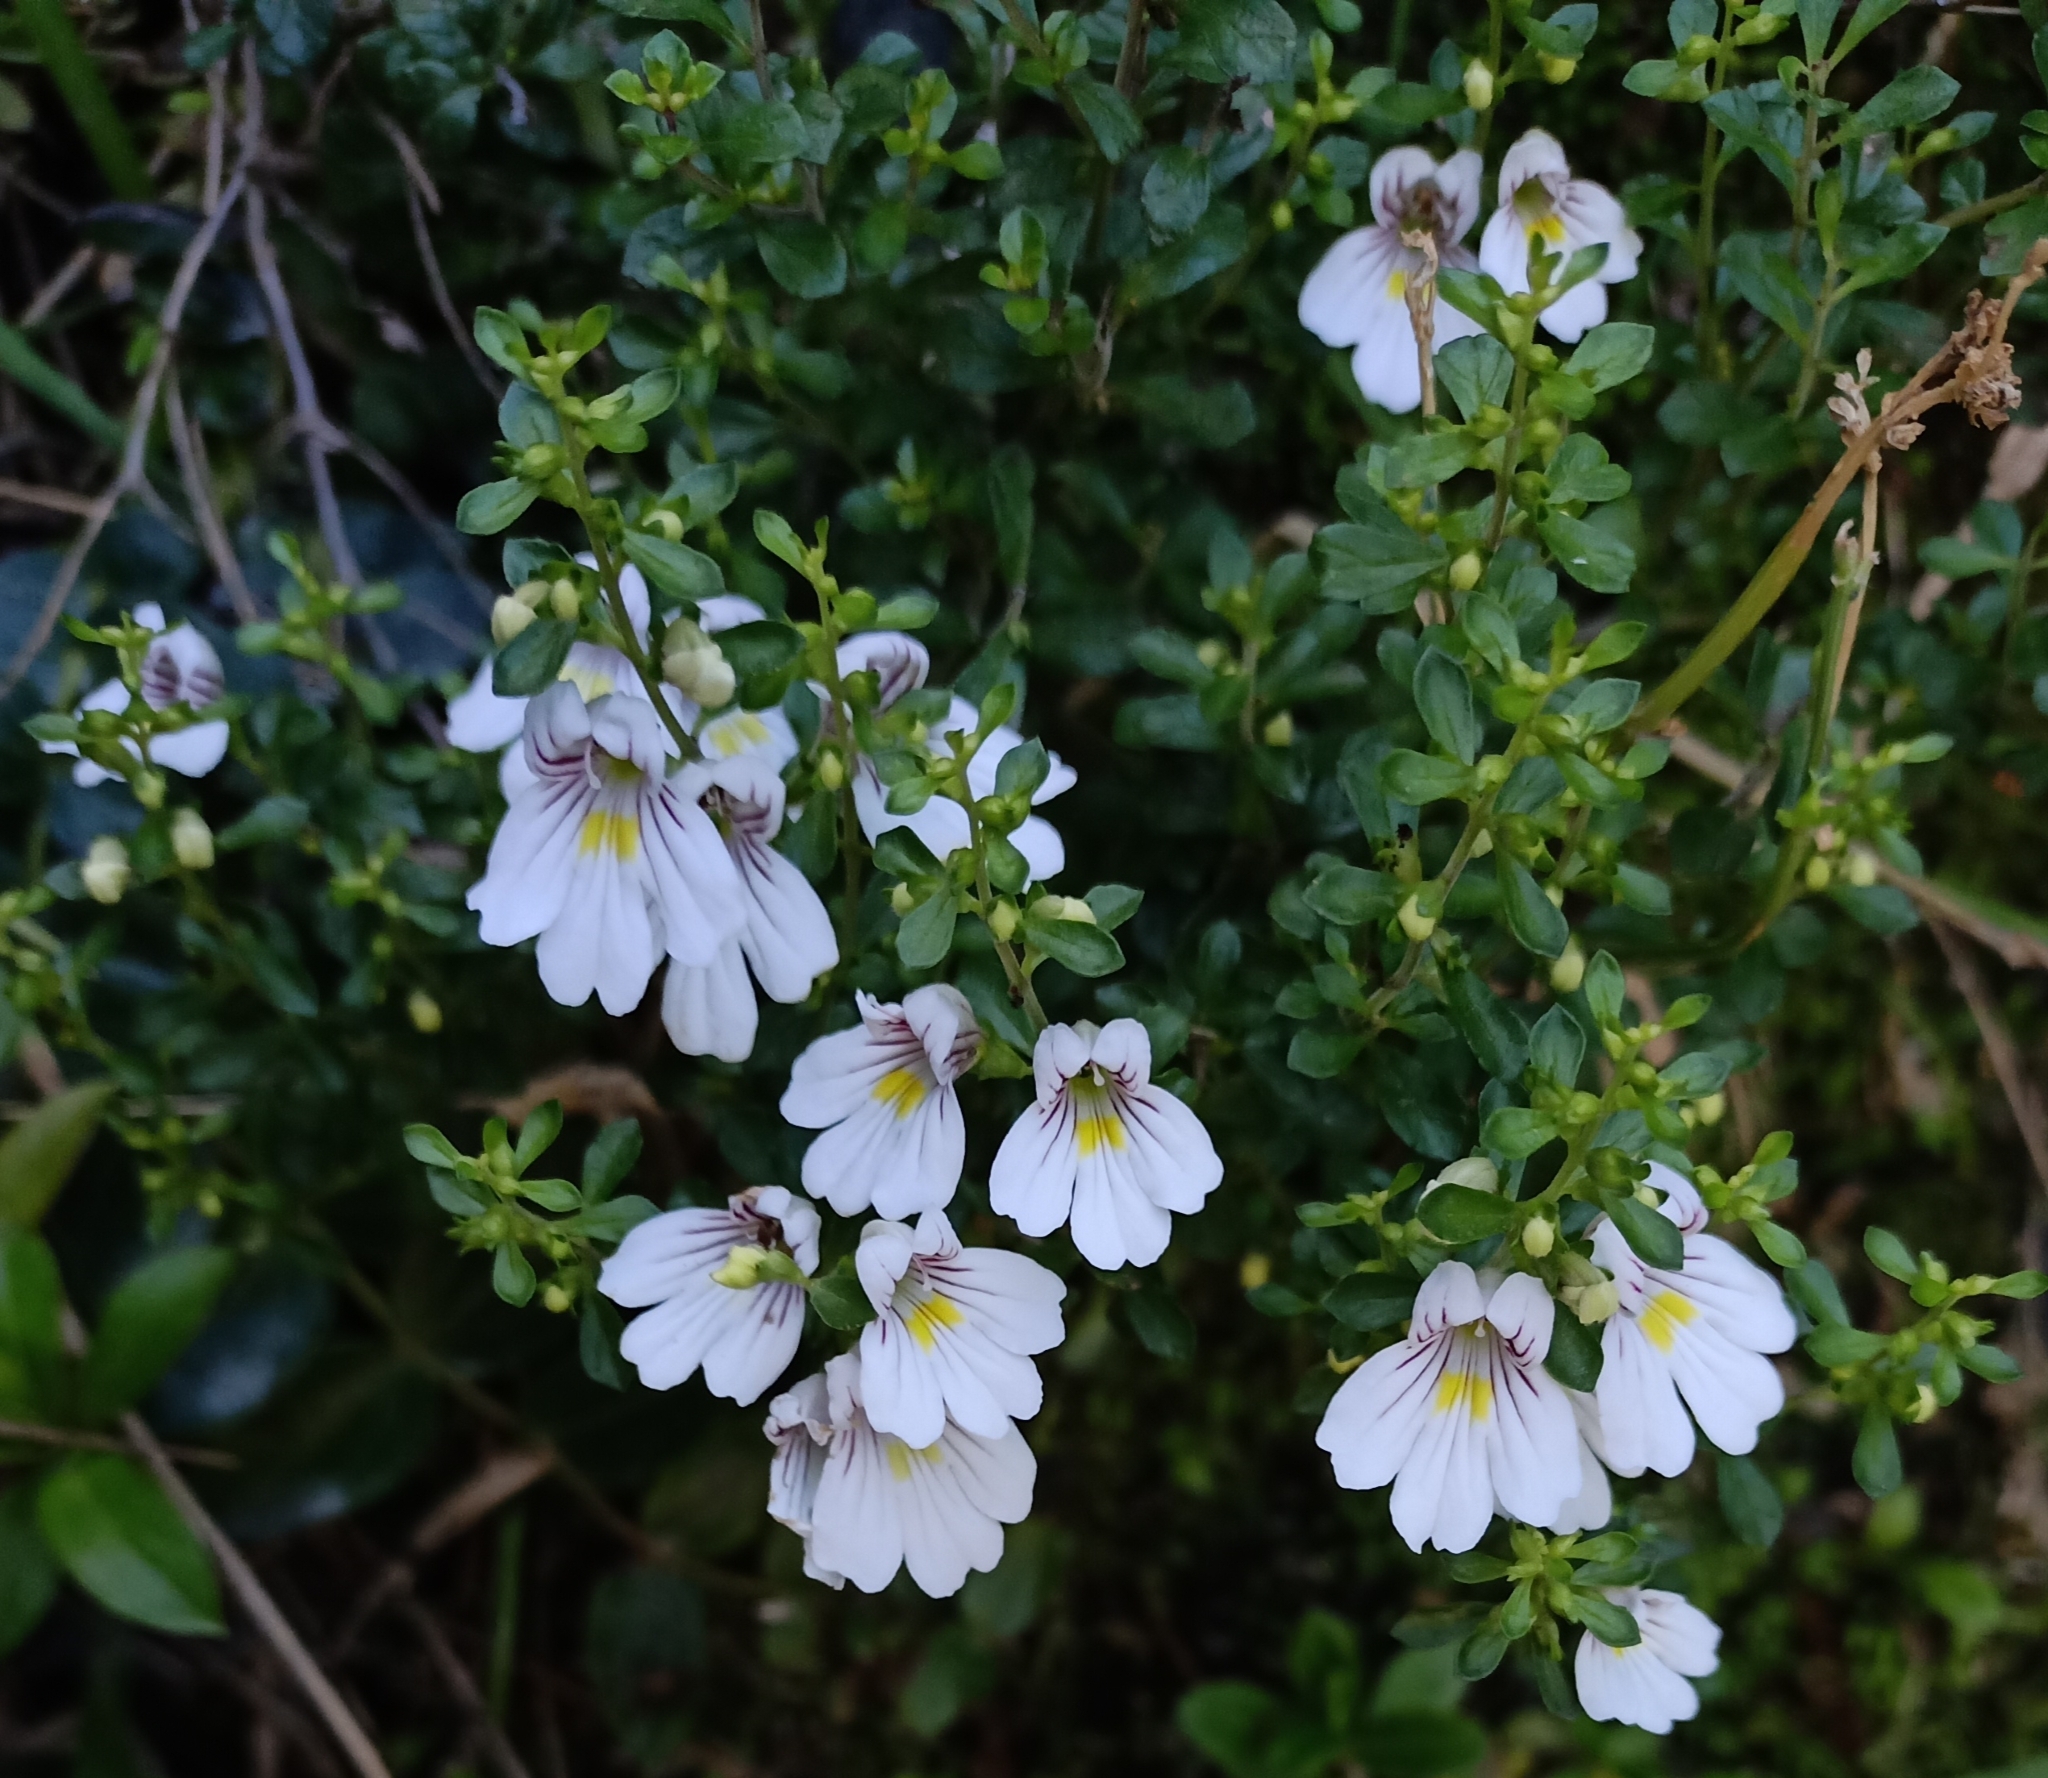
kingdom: Plantae
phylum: Tracheophyta
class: Magnoliopsida
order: Lamiales
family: Orobanchaceae
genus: Euphrasia
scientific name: Euphrasia cuneata
